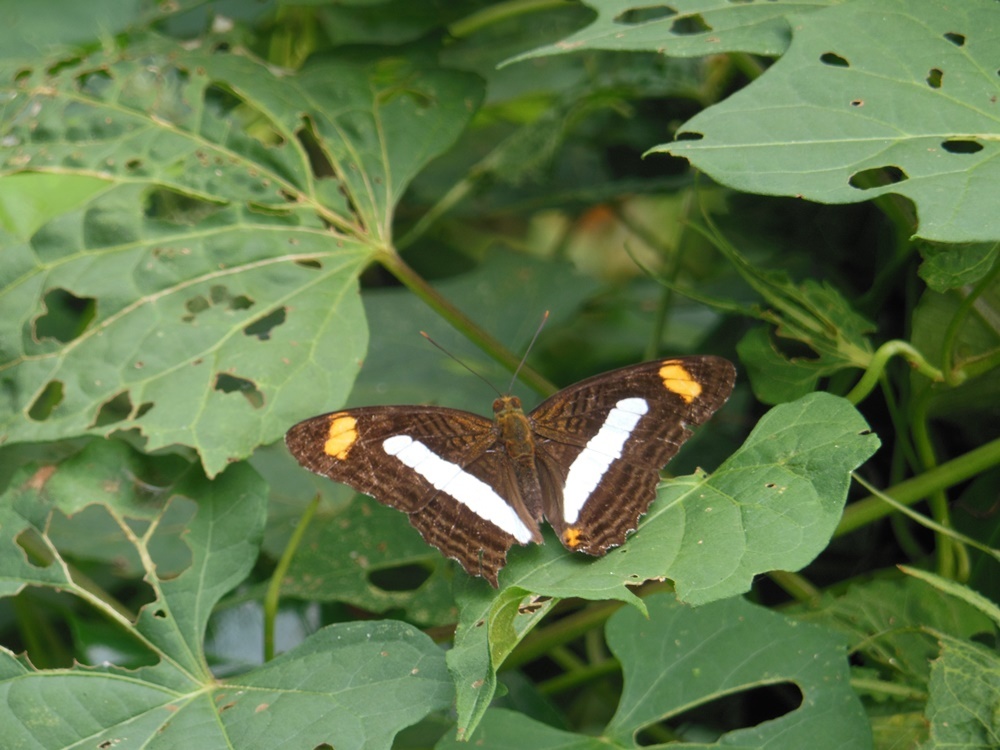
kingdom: Animalia
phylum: Arthropoda
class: Insecta
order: Lepidoptera
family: Nymphalidae
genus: Limenitis
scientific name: Limenitis Adelpha iphiclus
